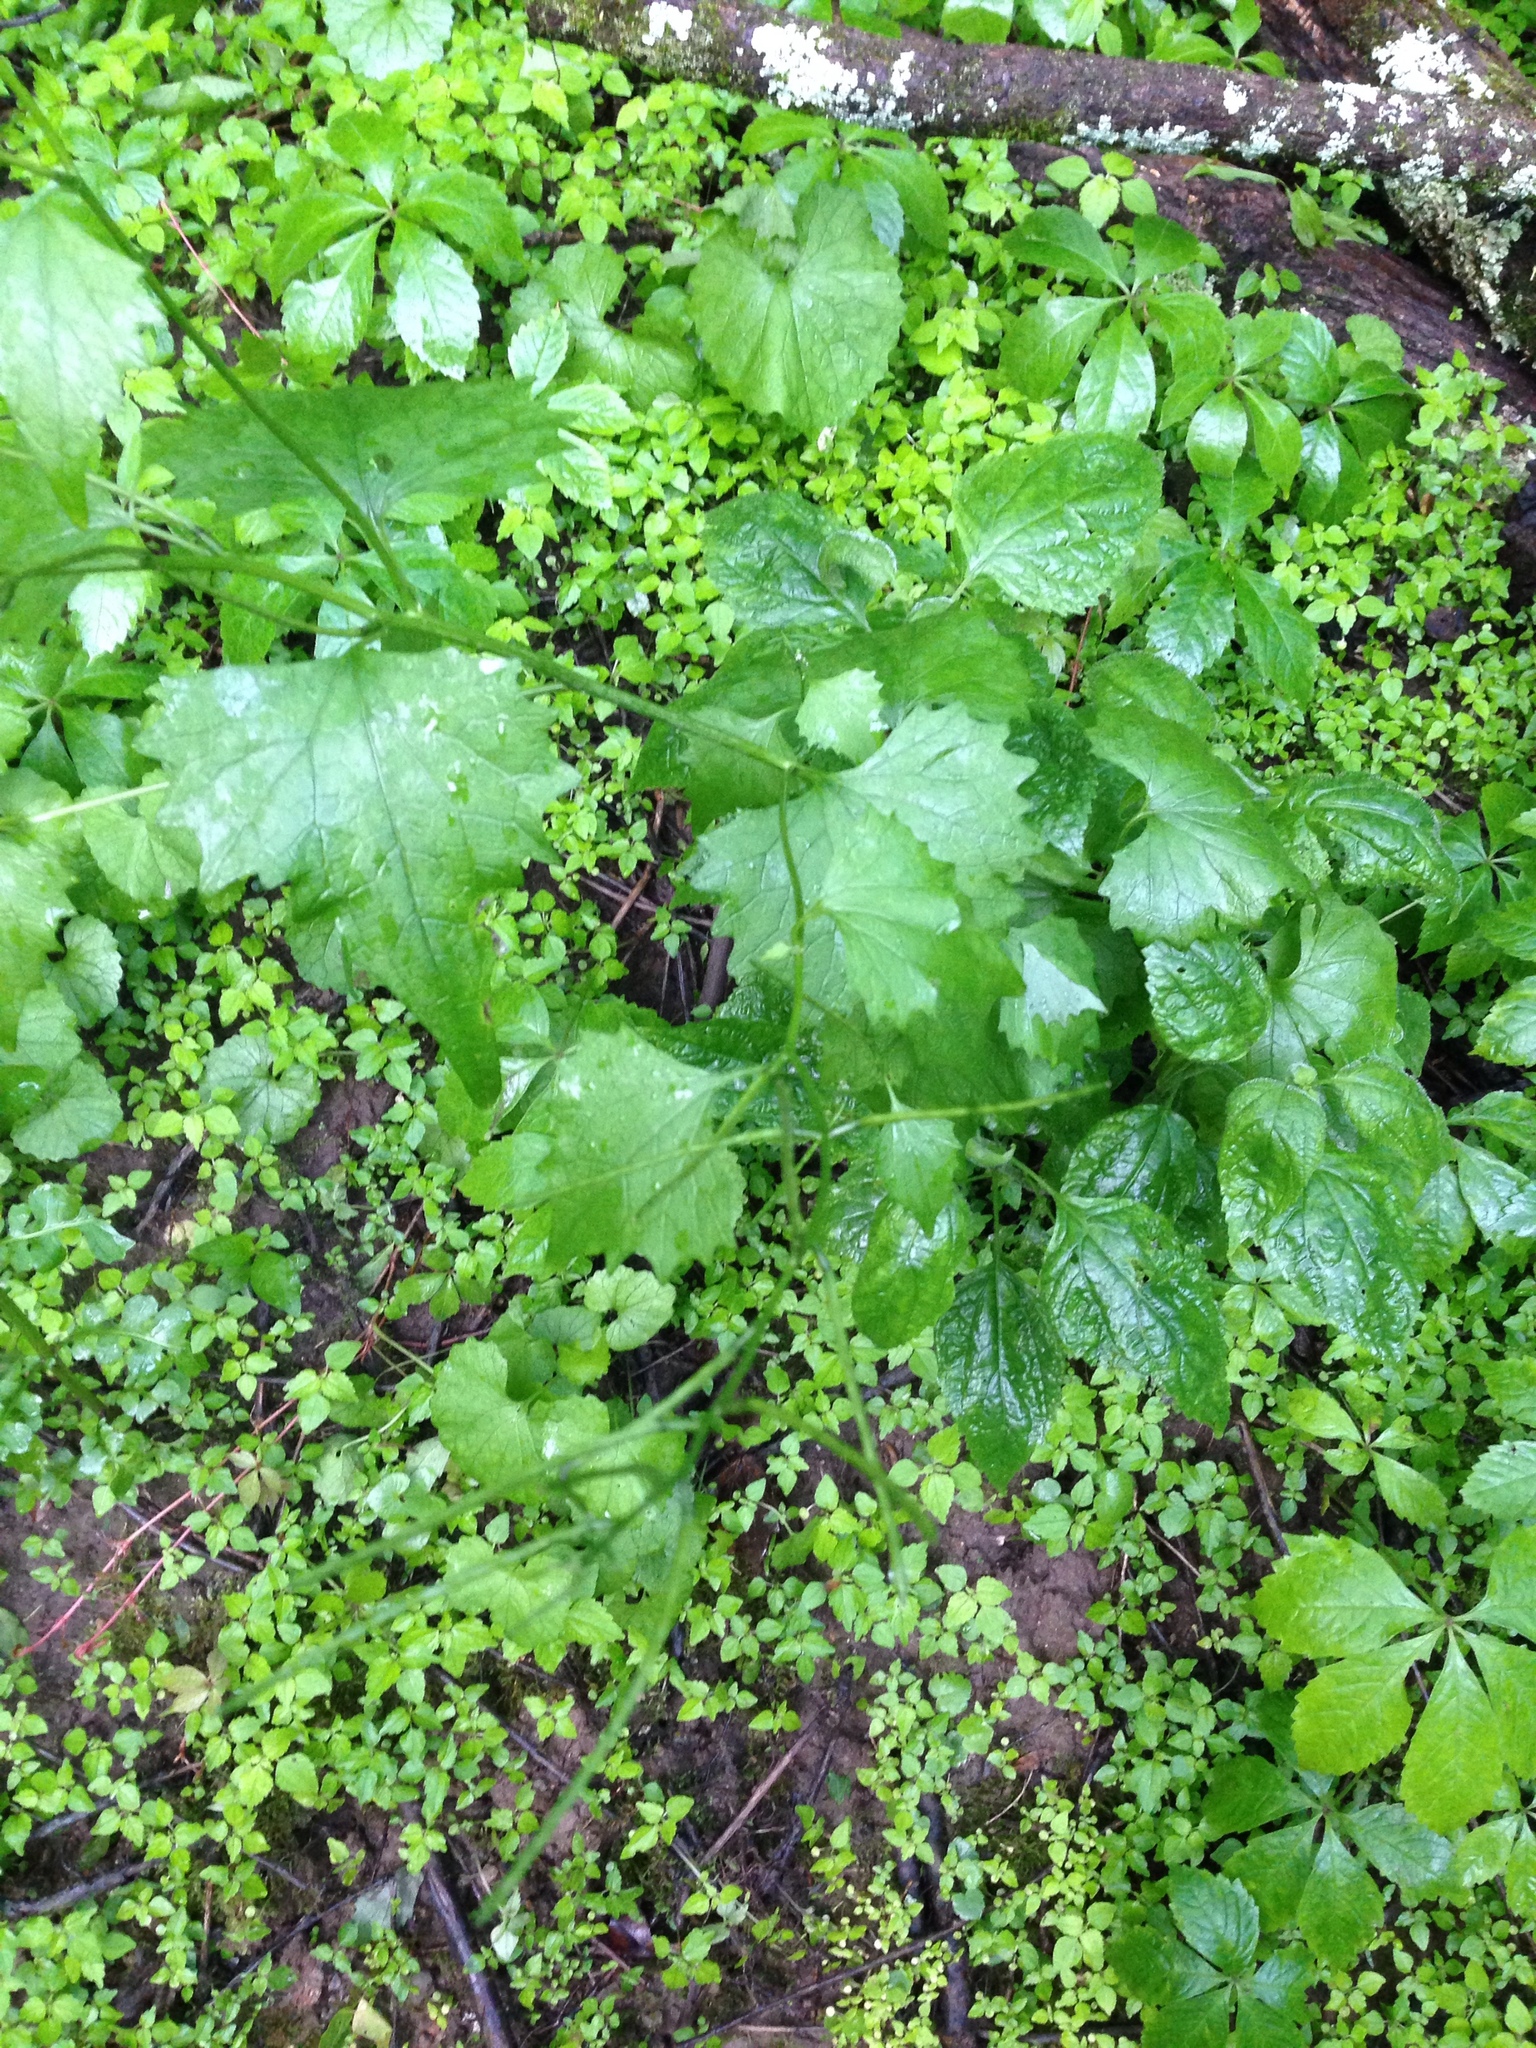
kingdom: Plantae
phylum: Tracheophyta
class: Magnoliopsida
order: Brassicales
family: Brassicaceae
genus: Alliaria
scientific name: Alliaria petiolata
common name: Garlic mustard
